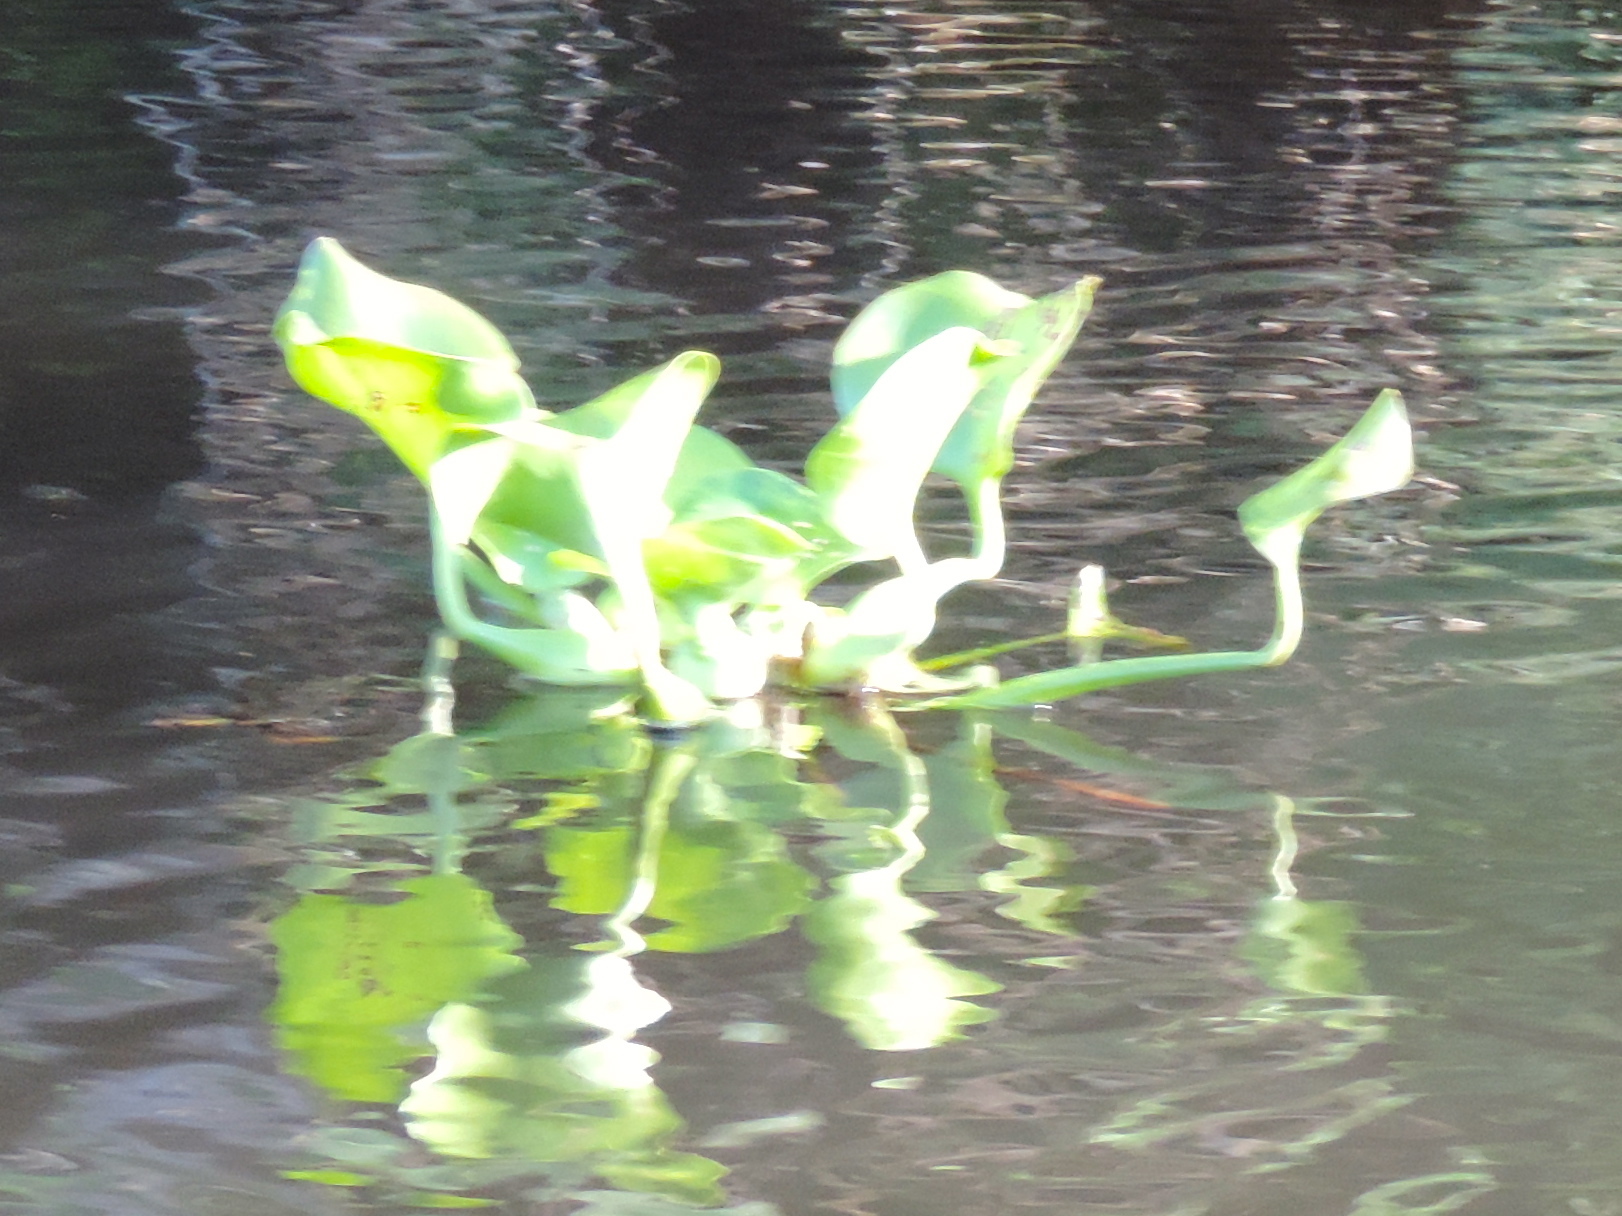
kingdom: Plantae
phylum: Tracheophyta
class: Liliopsida
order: Commelinales
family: Pontederiaceae
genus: Pontederia
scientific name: Pontederia crassipes
